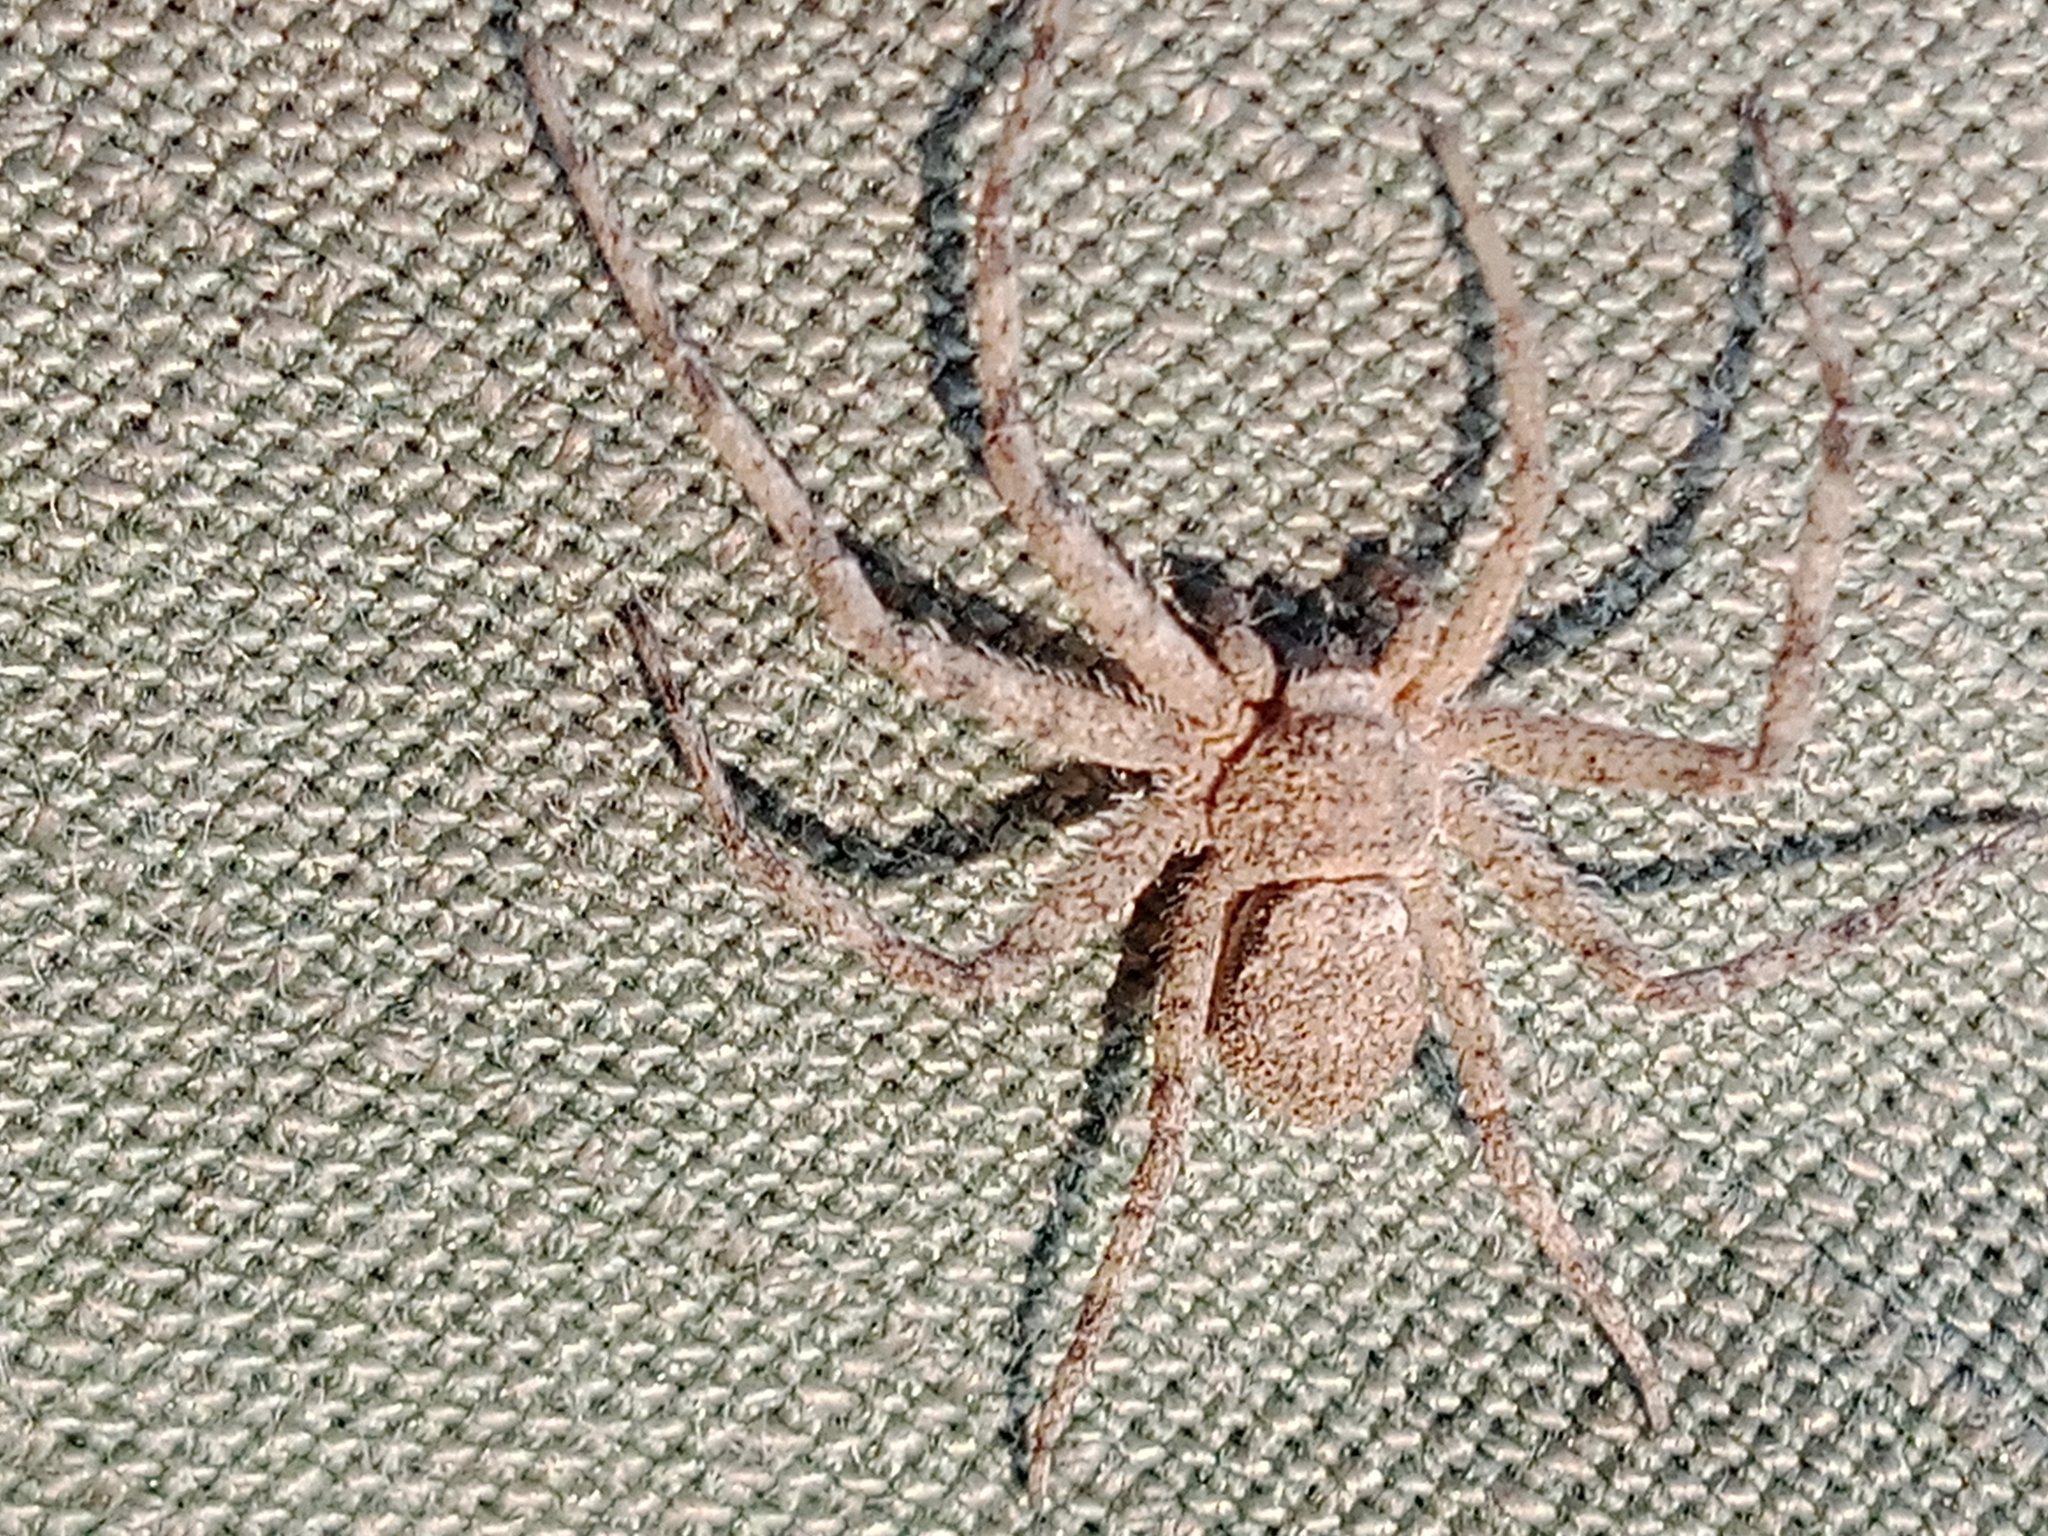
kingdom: Animalia
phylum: Arthropoda
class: Arachnida
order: Araneae
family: Philodromidae
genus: Philodromus
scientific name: Philodromus fuscomarginatus
